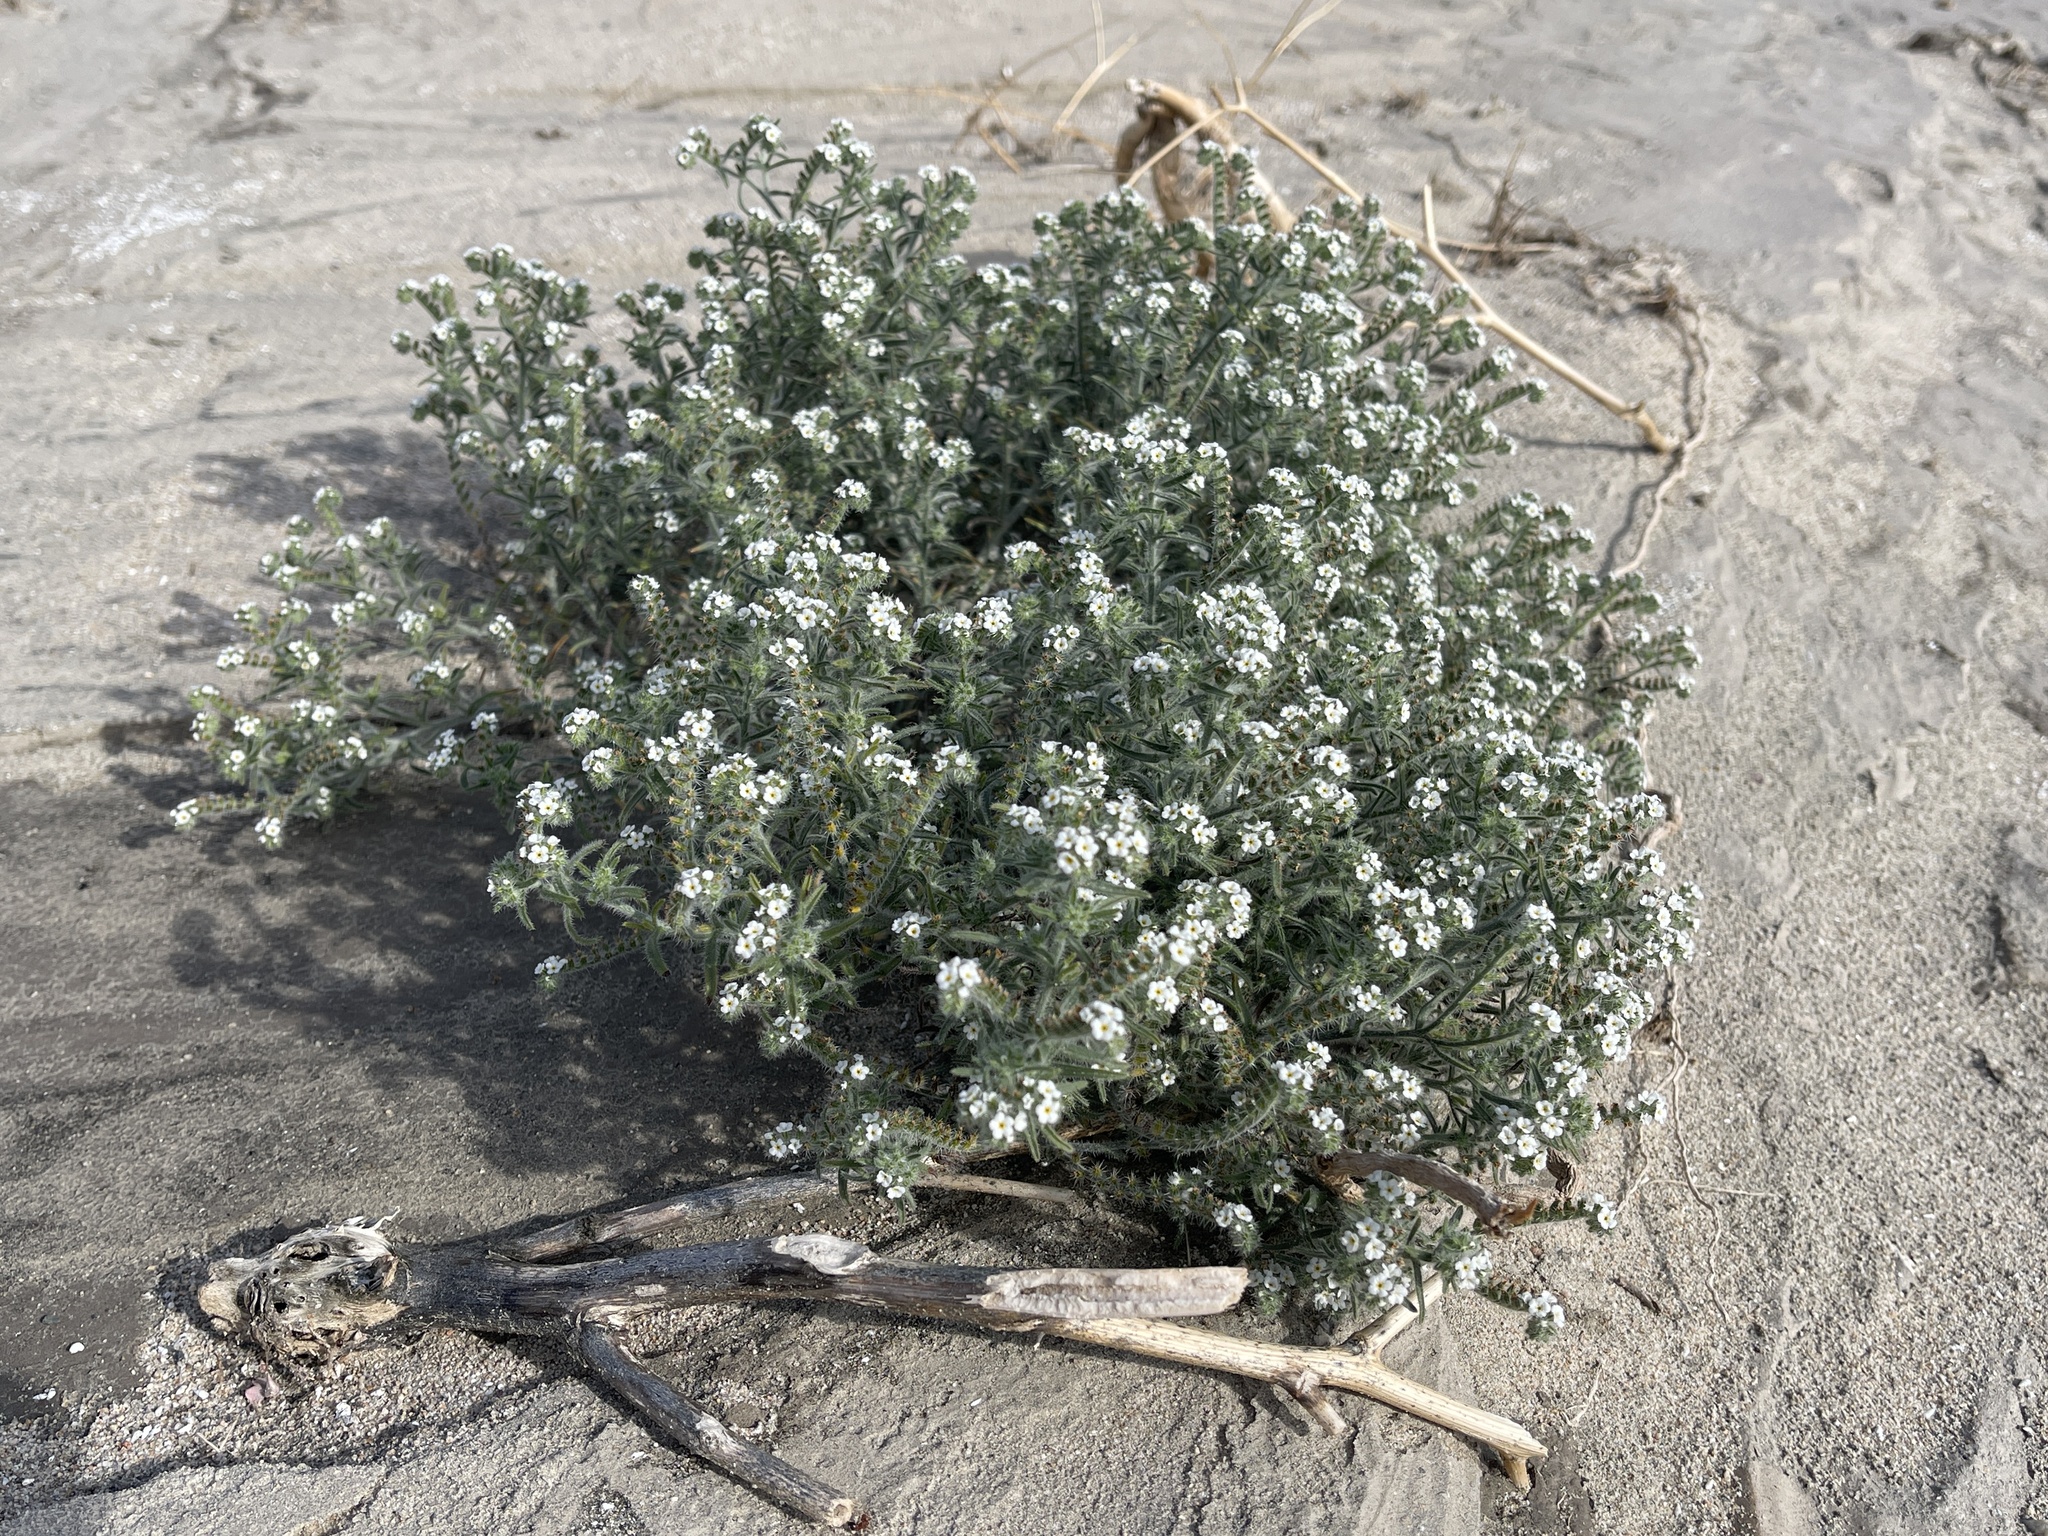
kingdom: Plantae
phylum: Tracheophyta
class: Magnoliopsida
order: Boraginales
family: Boraginaceae
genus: Johnstonella
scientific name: Johnstonella angustifolia
